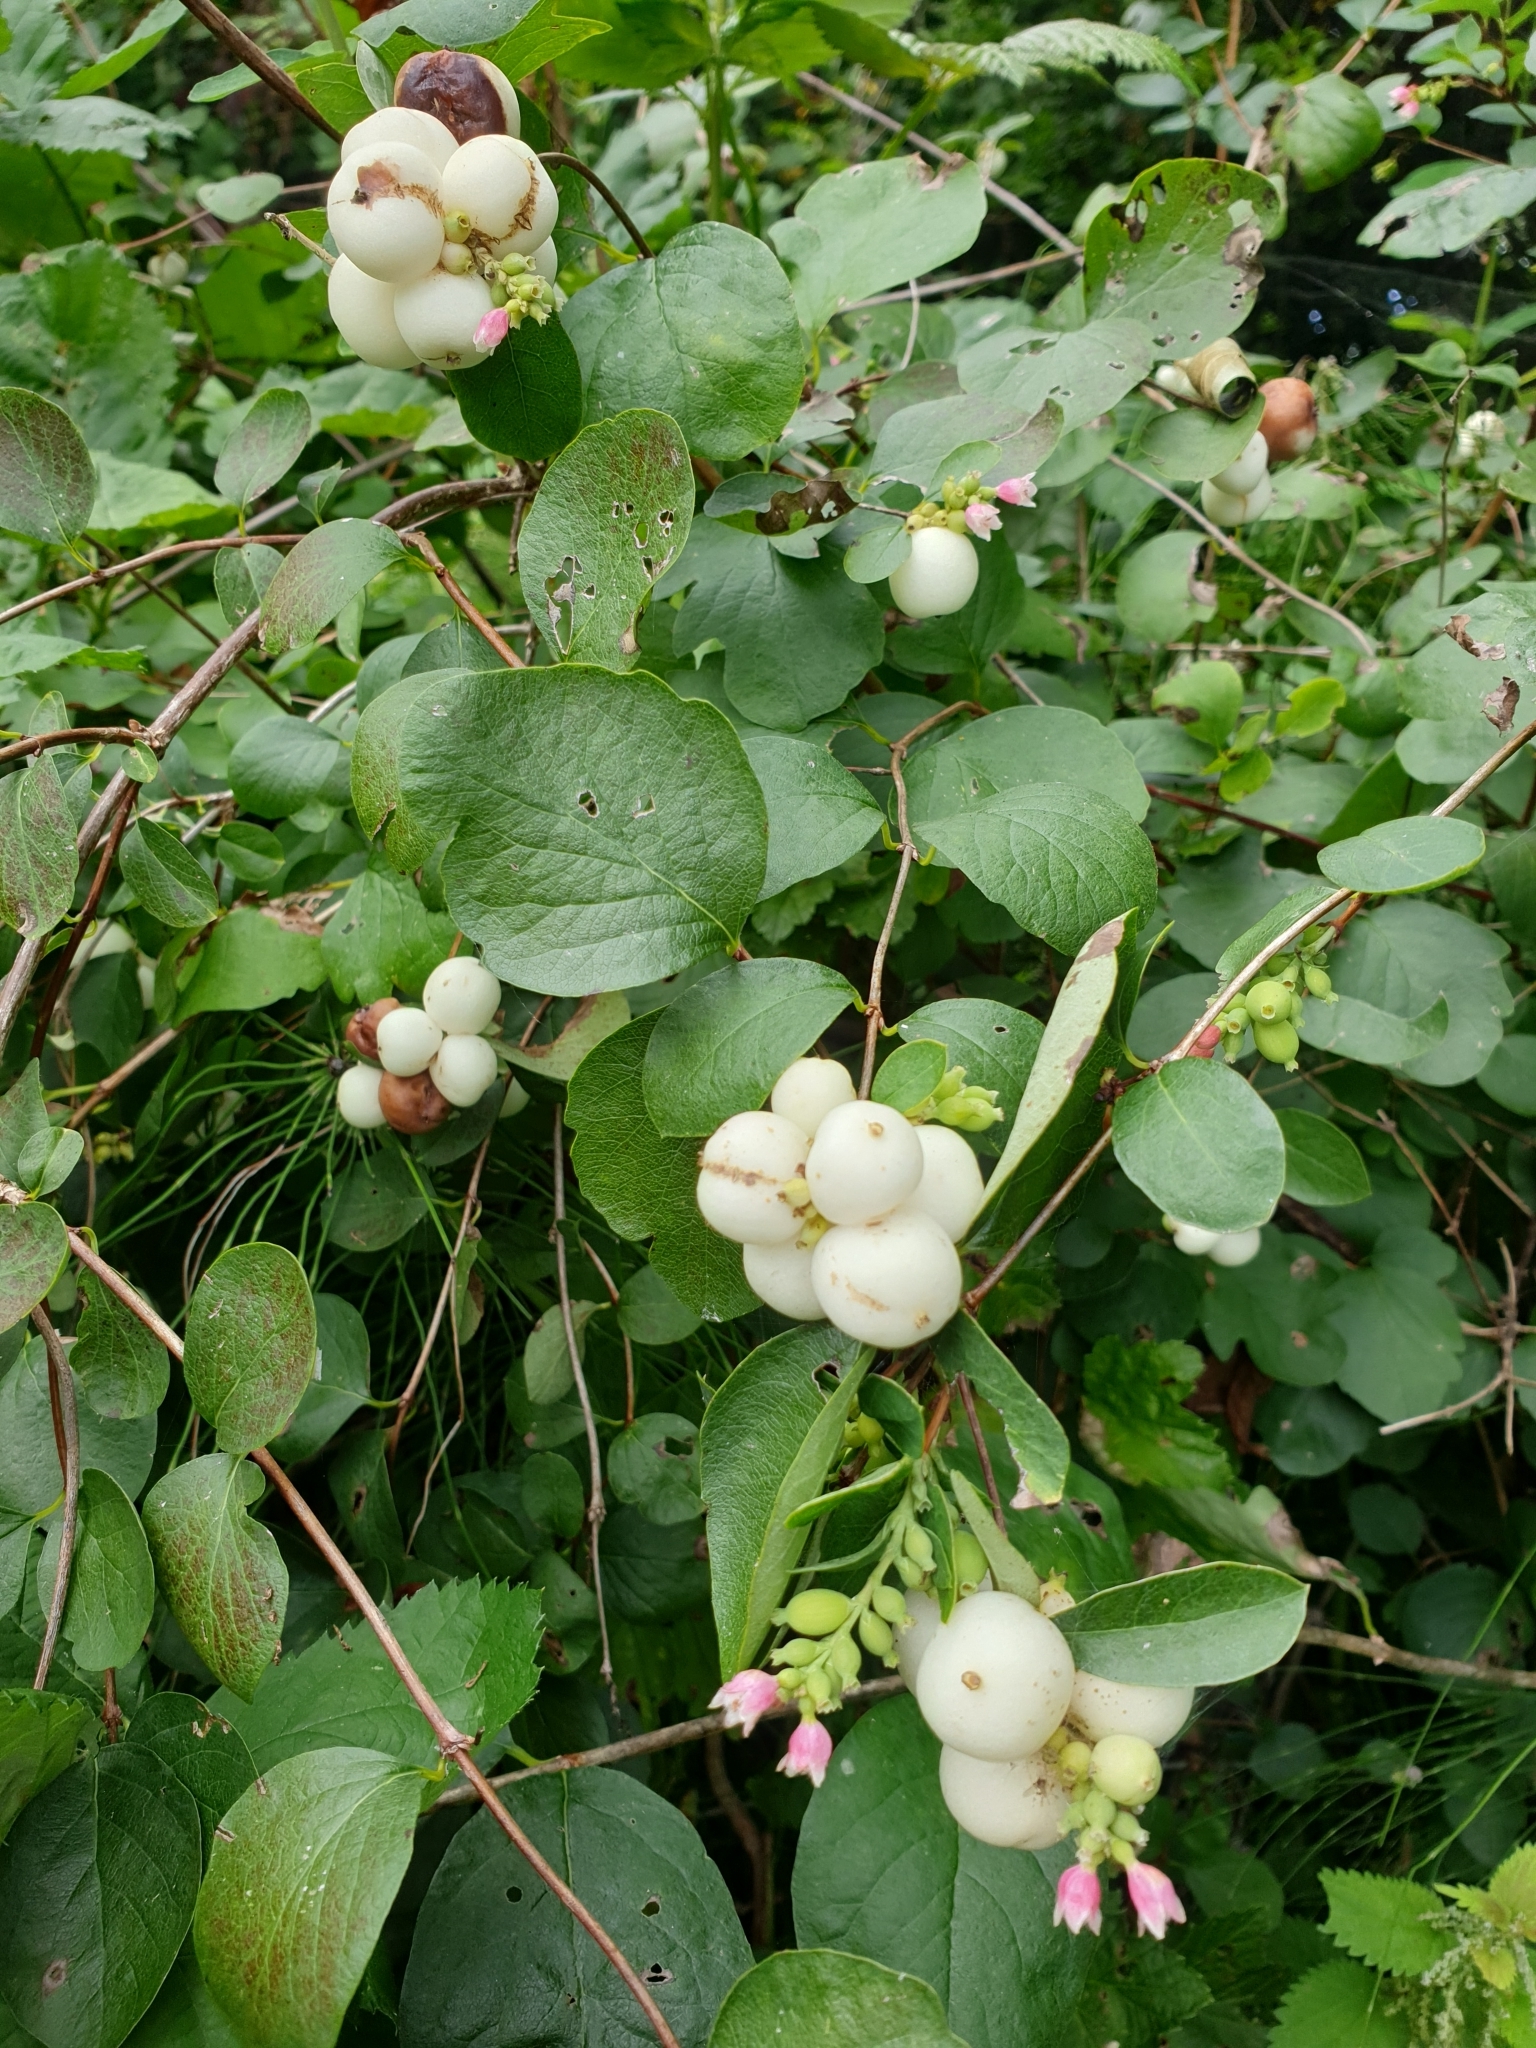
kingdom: Plantae
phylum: Tracheophyta
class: Magnoliopsida
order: Dipsacales
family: Caprifoliaceae
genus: Symphoricarpos
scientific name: Symphoricarpos albus
